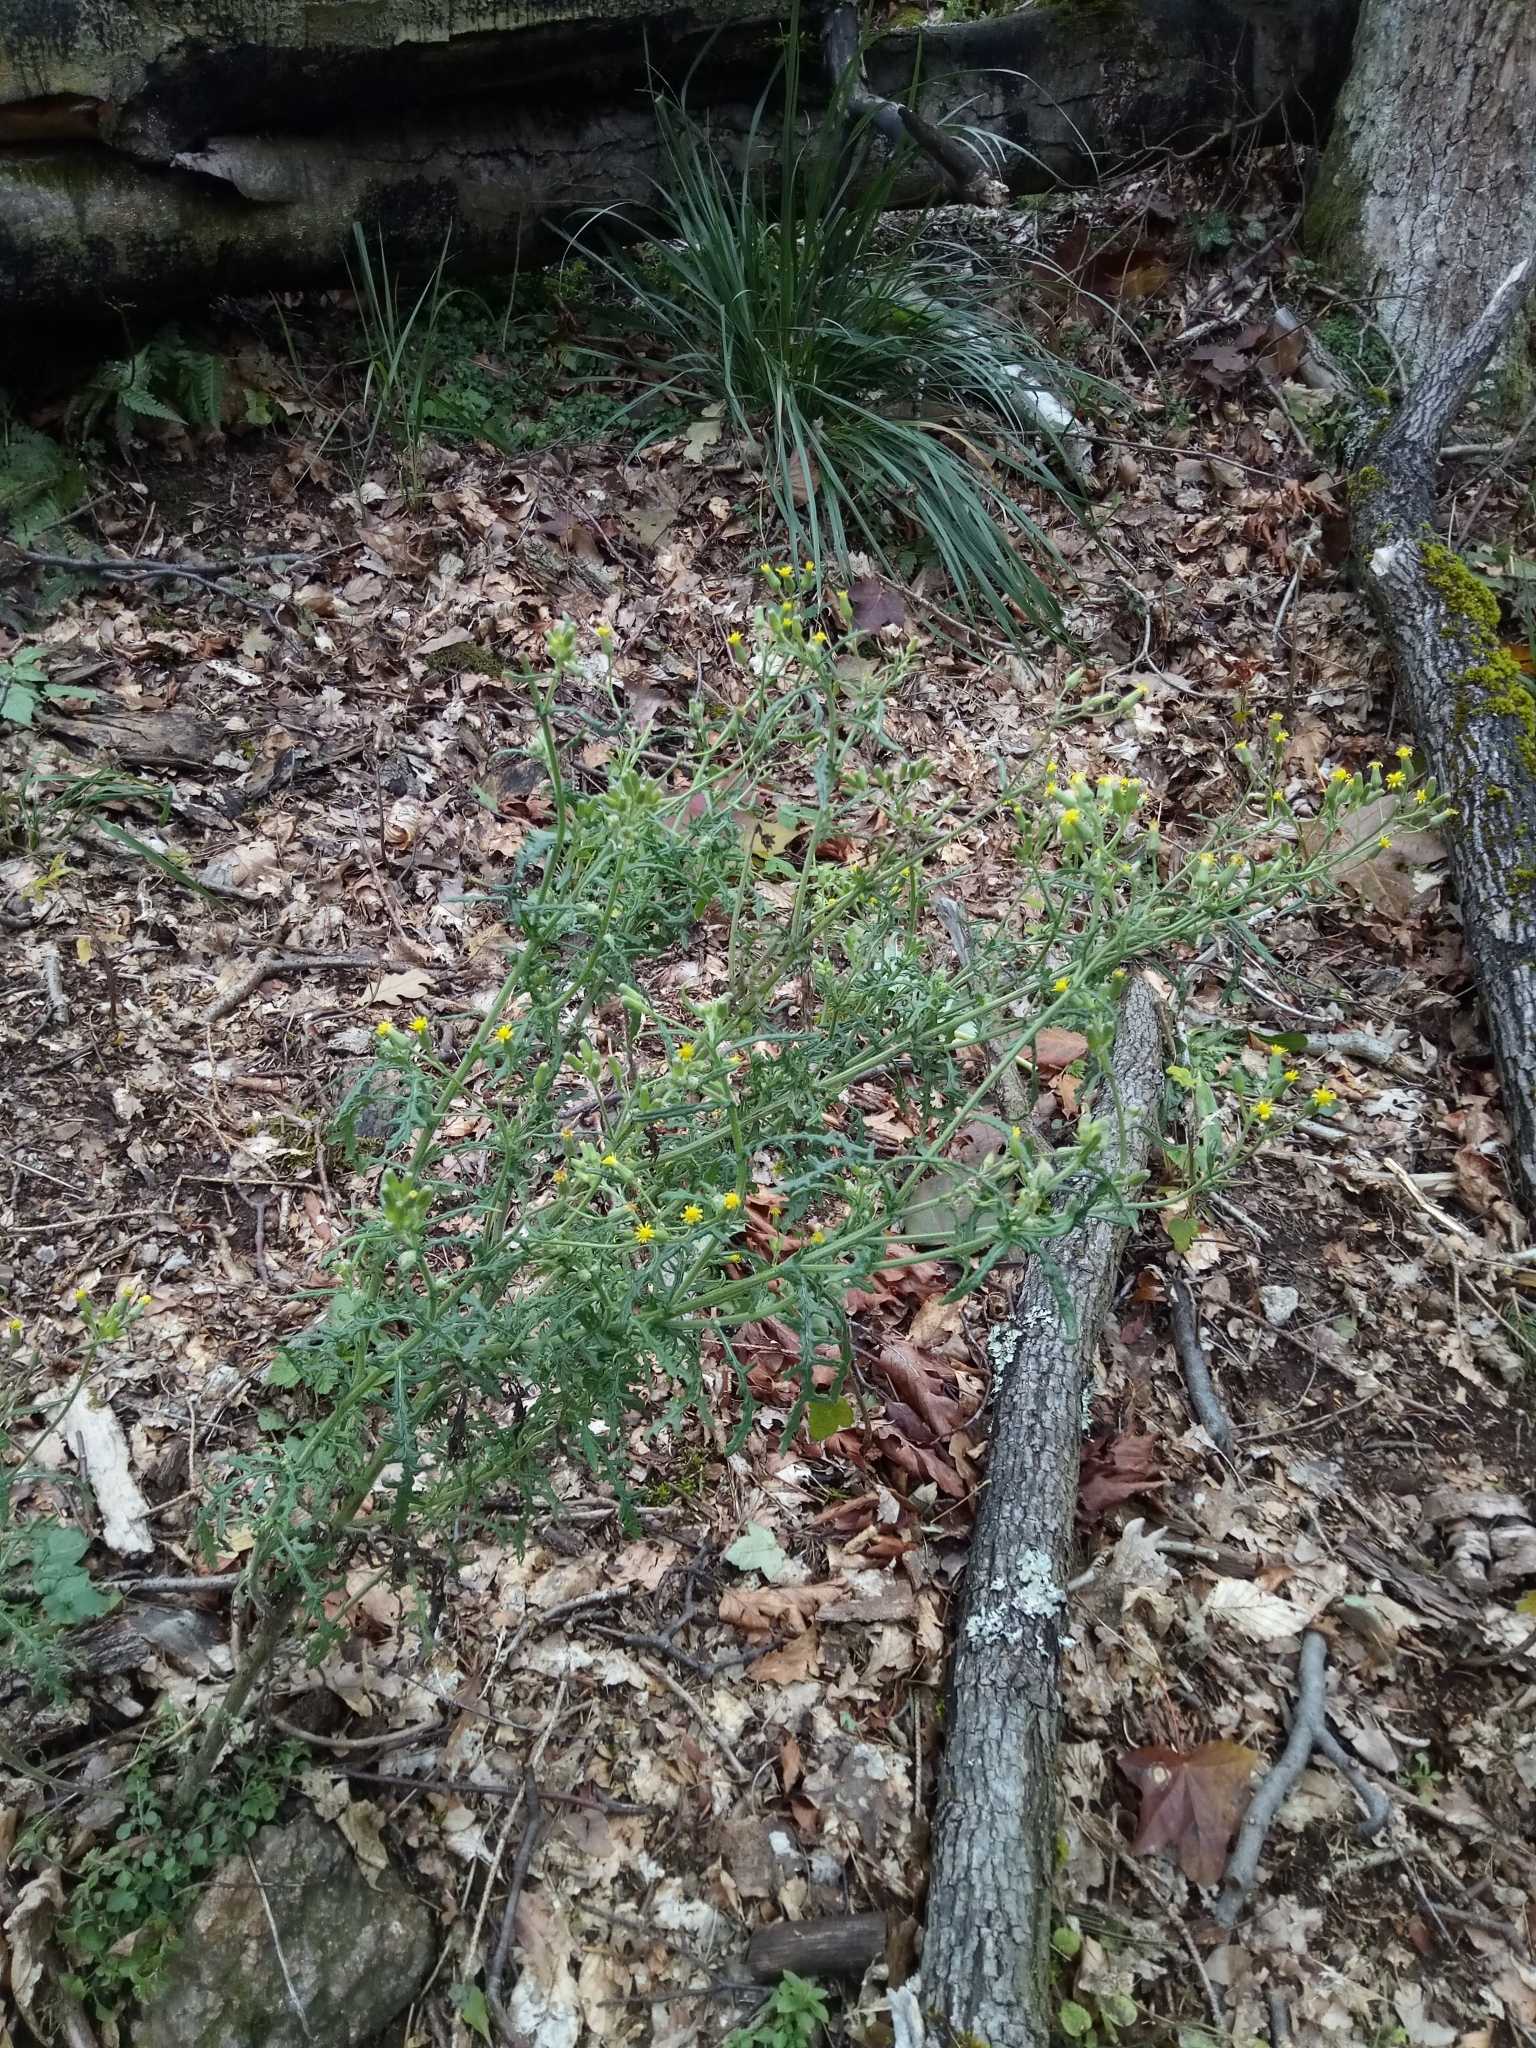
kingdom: Plantae
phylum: Tracheophyta
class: Magnoliopsida
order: Asterales
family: Asteraceae
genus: Senecio
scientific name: Senecio sylvaticus
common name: Woodland ragwort
